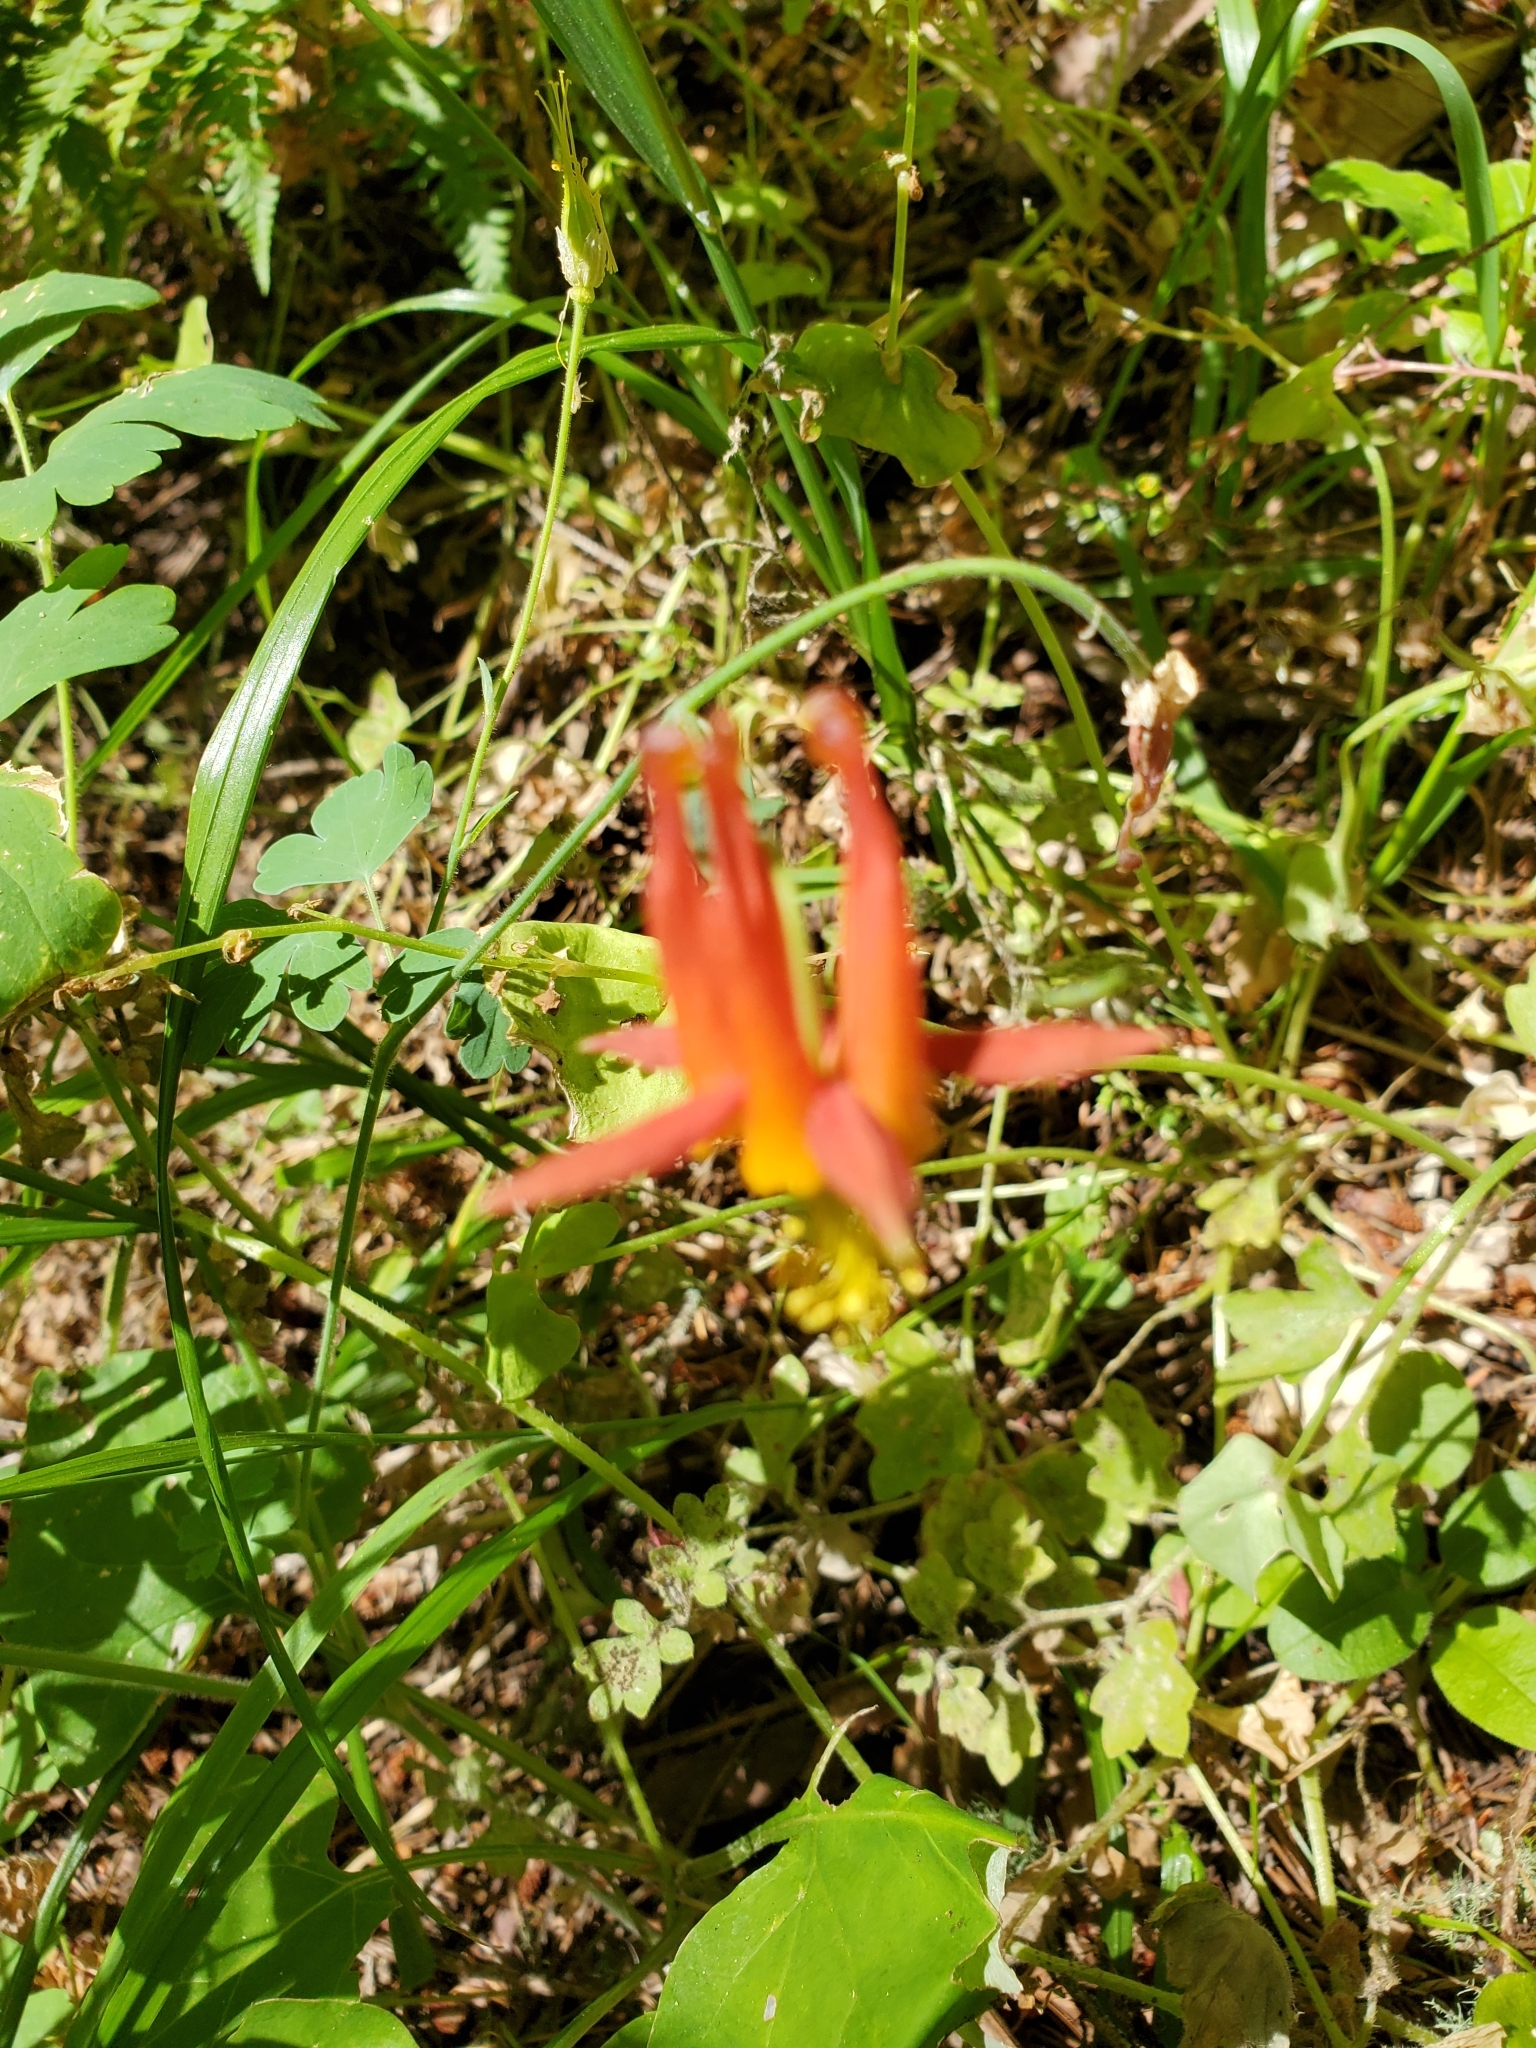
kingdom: Plantae
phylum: Tracheophyta
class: Magnoliopsida
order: Ranunculales
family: Ranunculaceae
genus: Aquilegia
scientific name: Aquilegia formosa
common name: Sitka columbine
